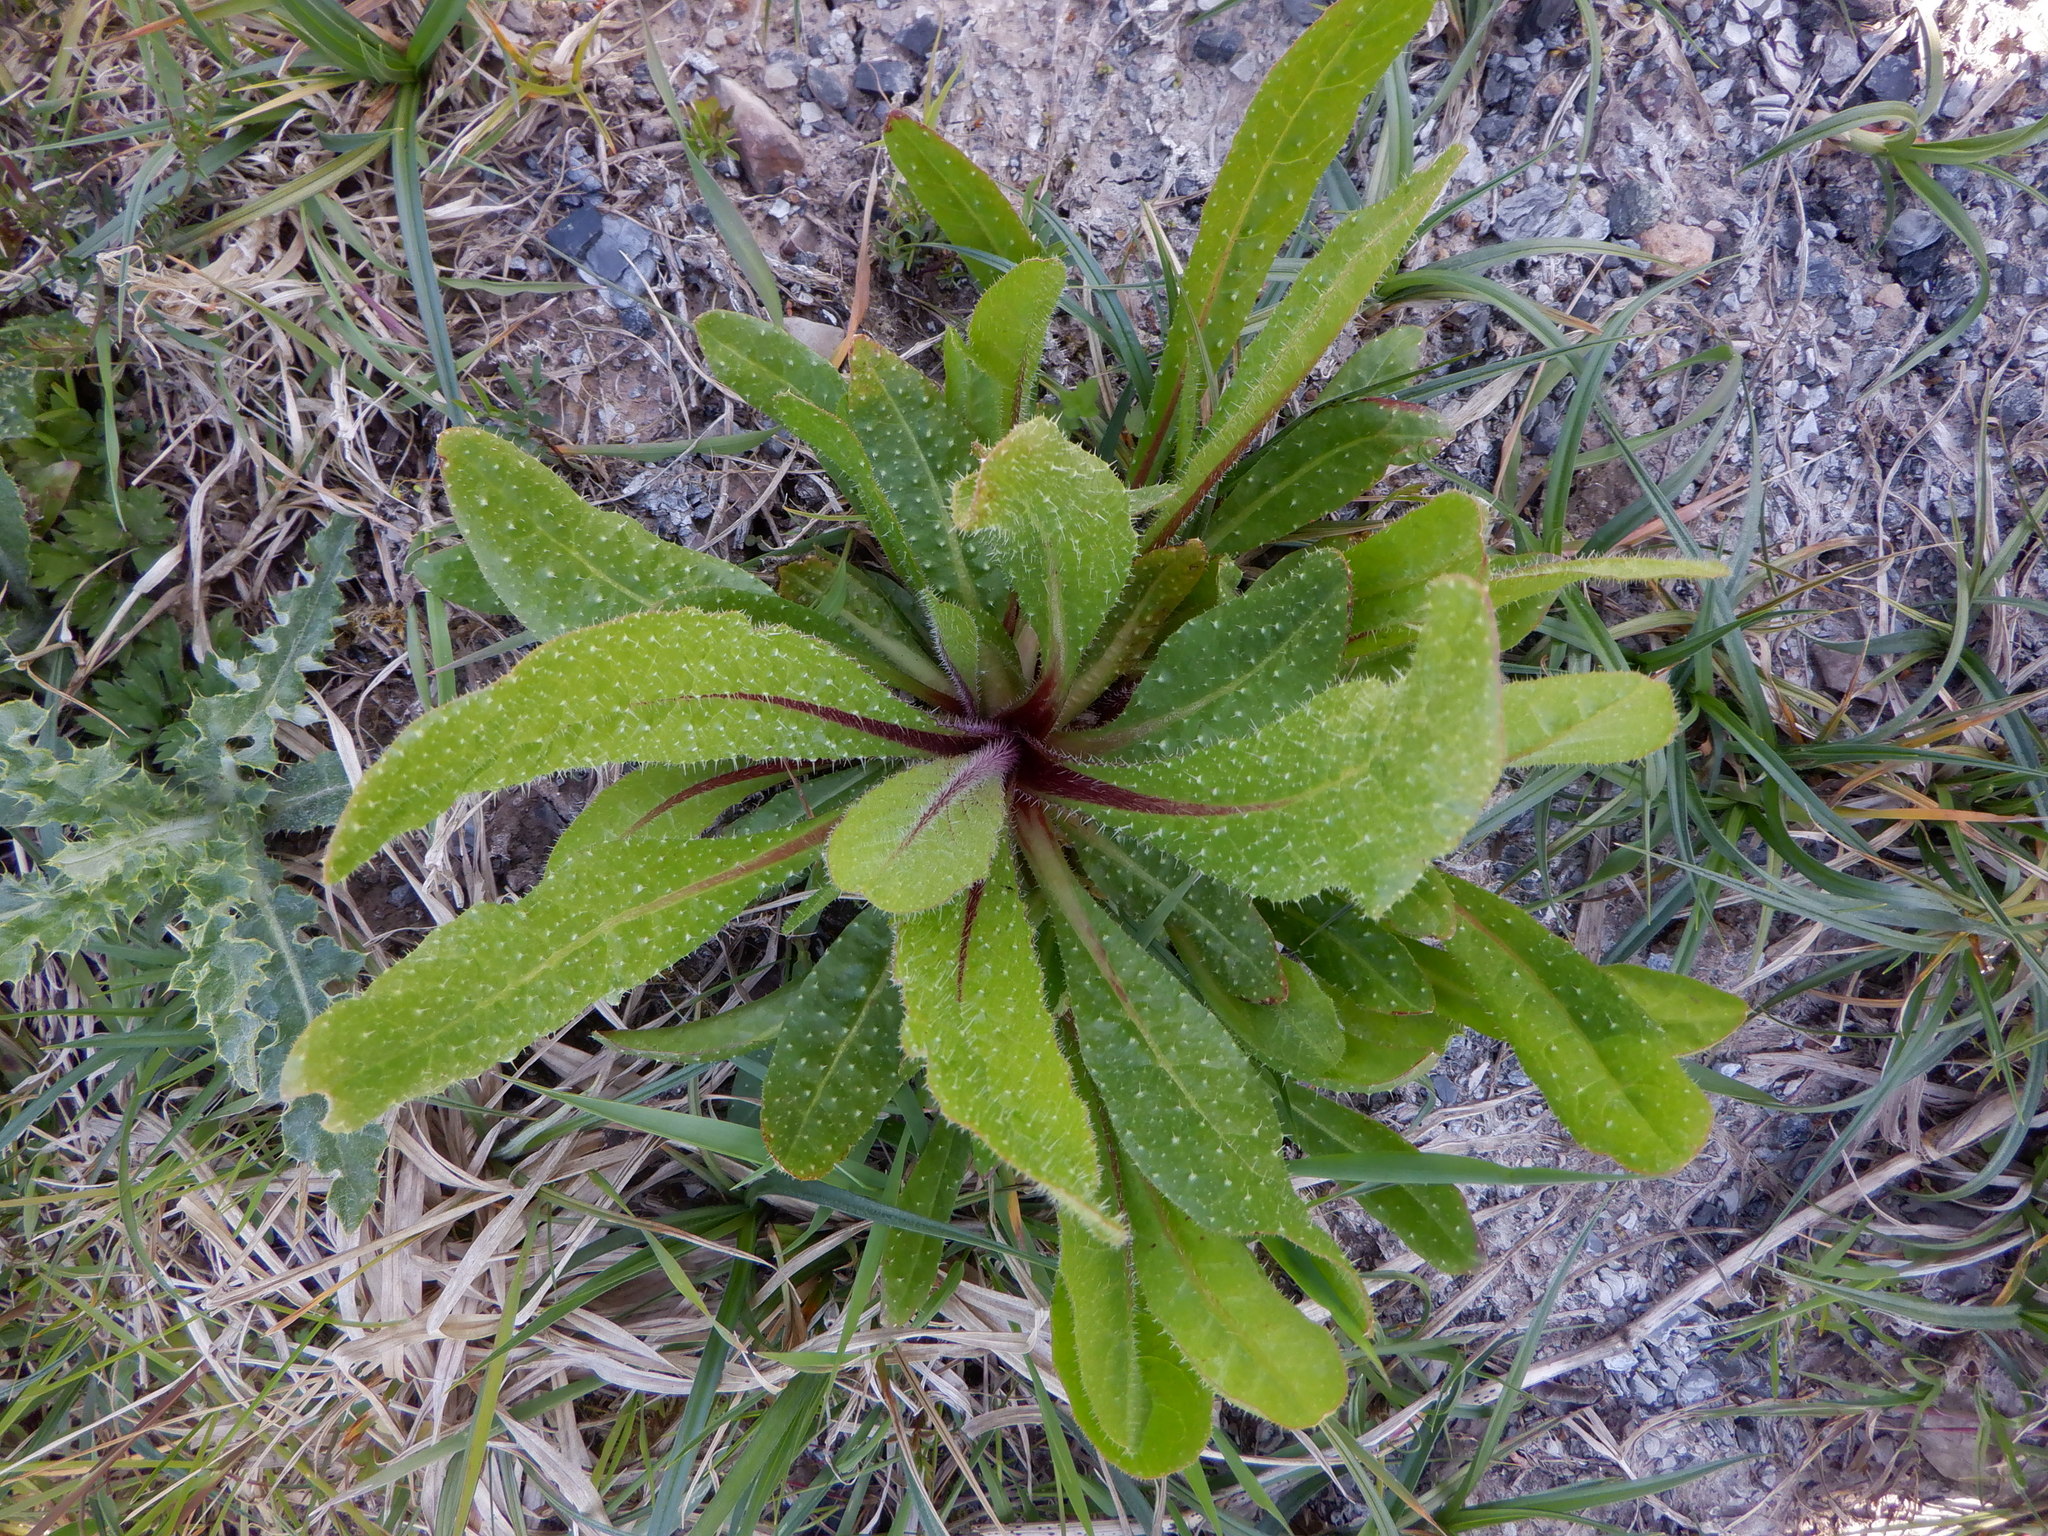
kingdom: Plantae
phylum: Tracheophyta
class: Magnoliopsida
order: Asterales
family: Asteraceae
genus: Helminthotheca
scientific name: Helminthotheca echioides
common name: Ox-tongue
